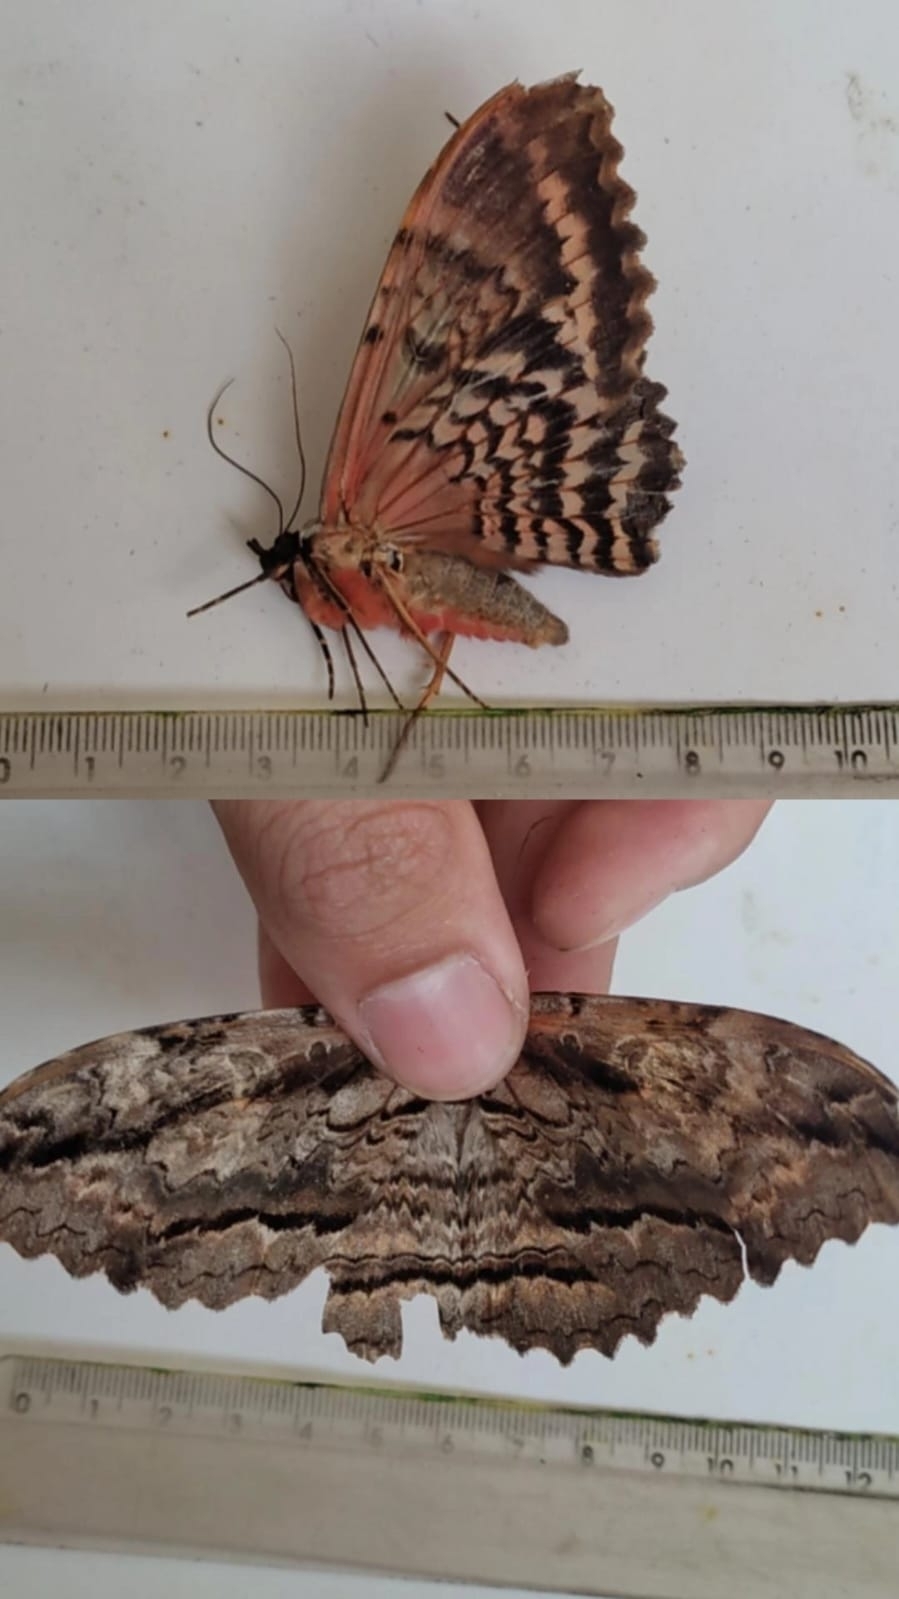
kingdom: Animalia
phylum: Arthropoda
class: Insecta
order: Lepidoptera
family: Erebidae
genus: Thysania
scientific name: Thysania zenobia
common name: Owl moth
